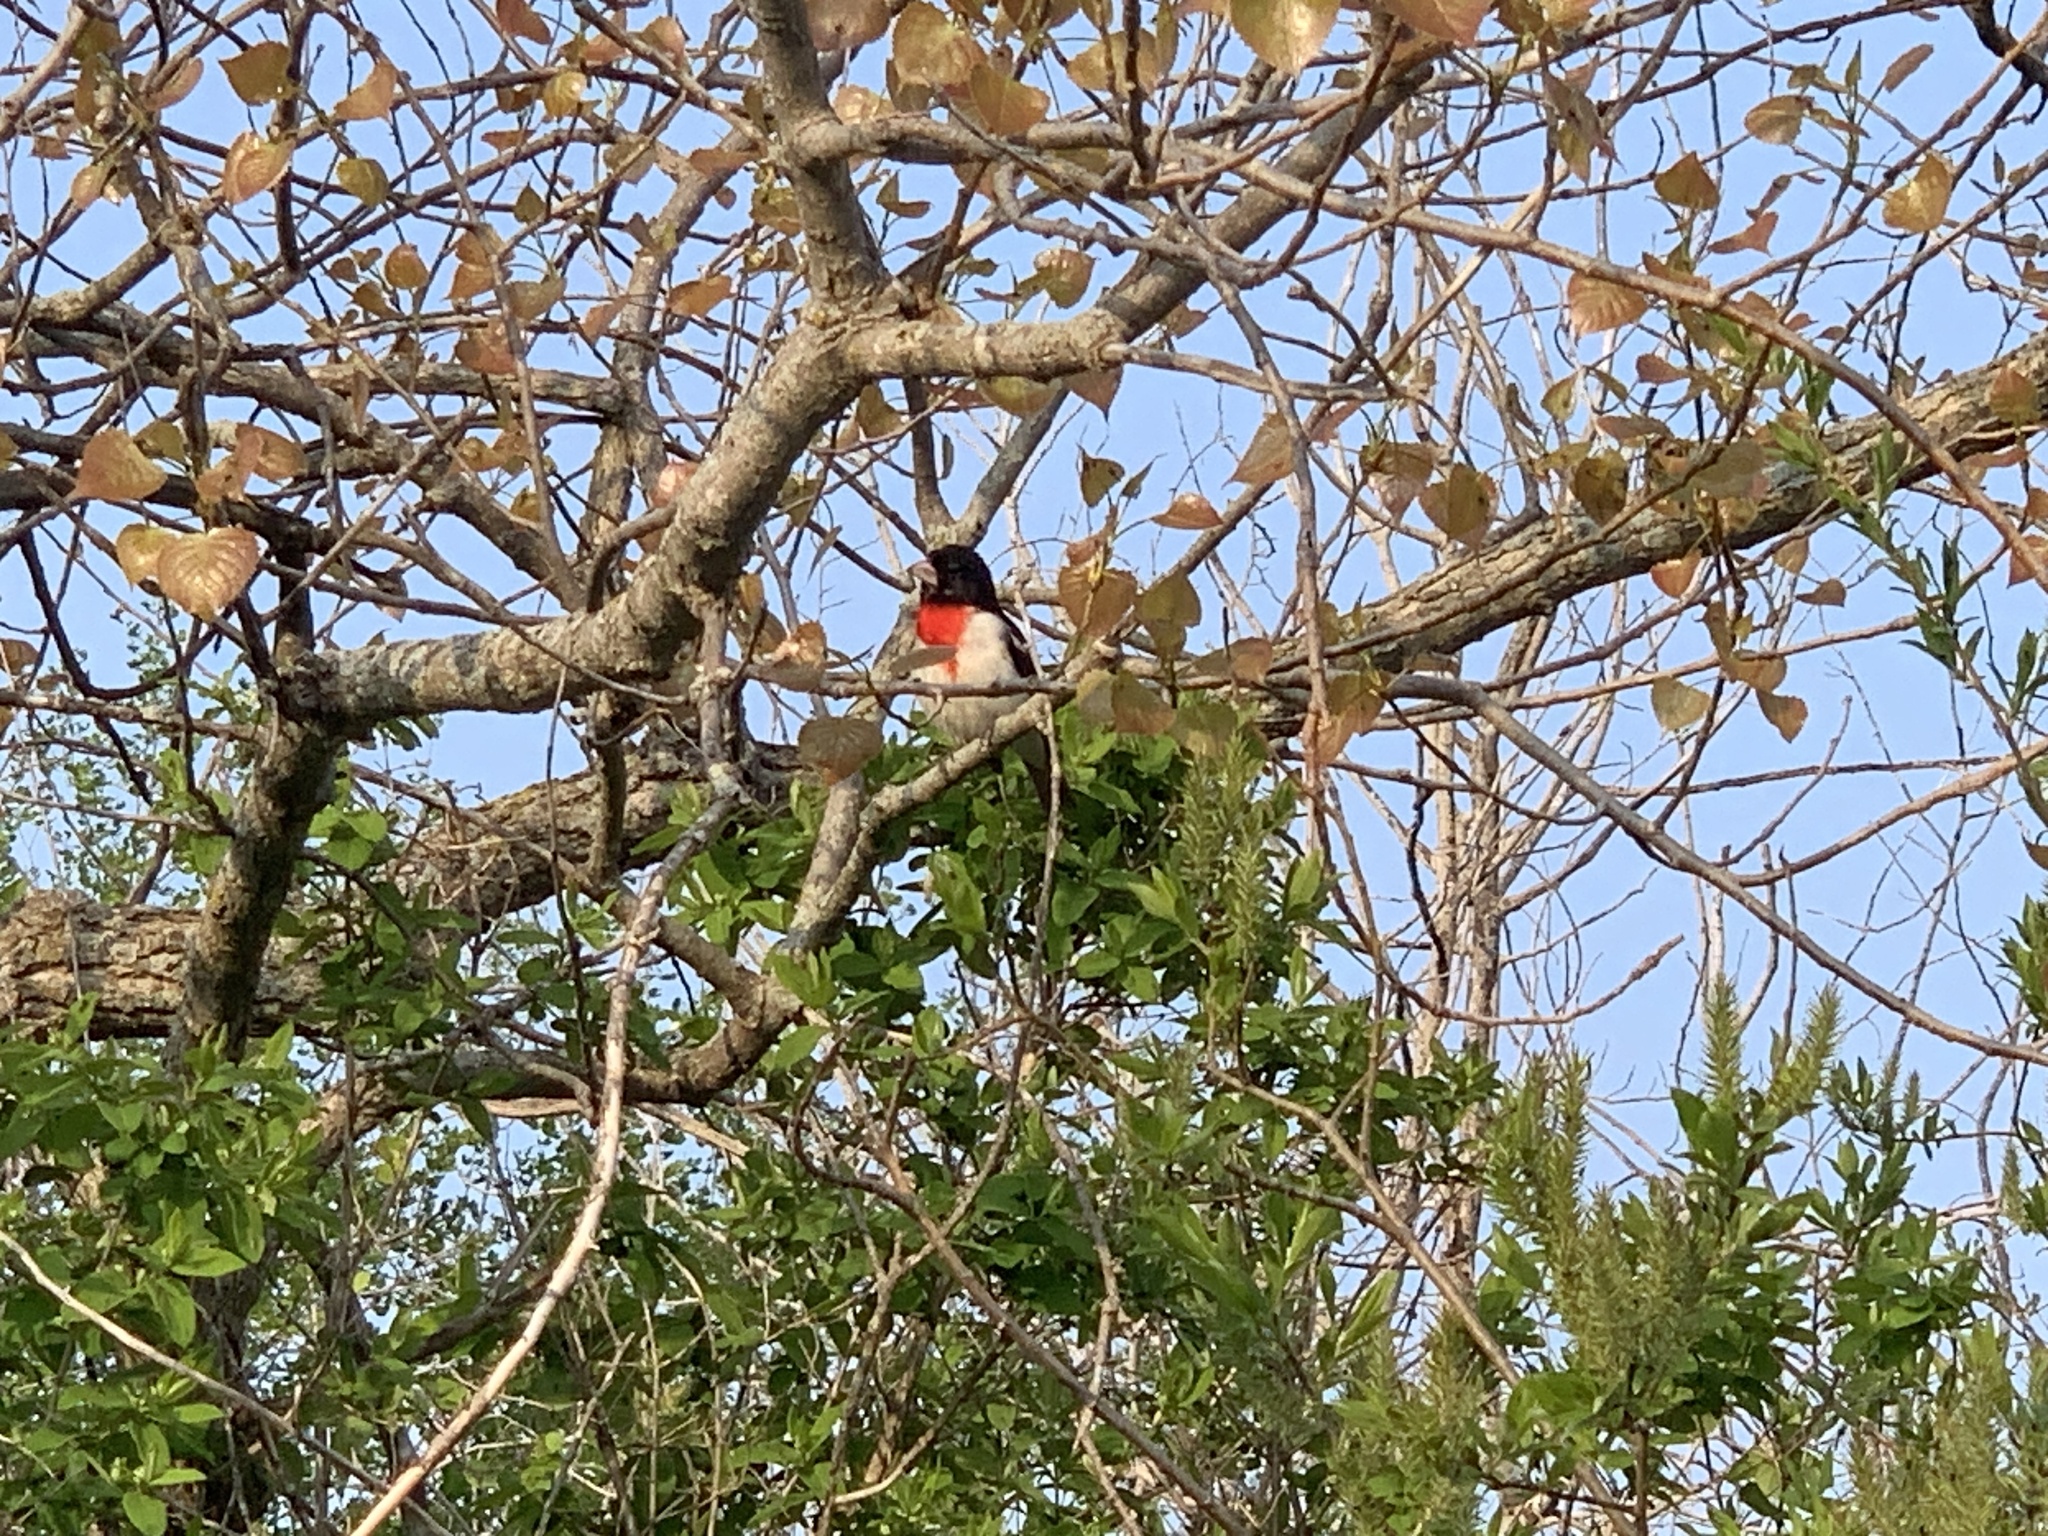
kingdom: Animalia
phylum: Chordata
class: Aves
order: Passeriformes
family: Cardinalidae
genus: Pheucticus
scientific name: Pheucticus ludovicianus
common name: Rose-breasted grosbeak
